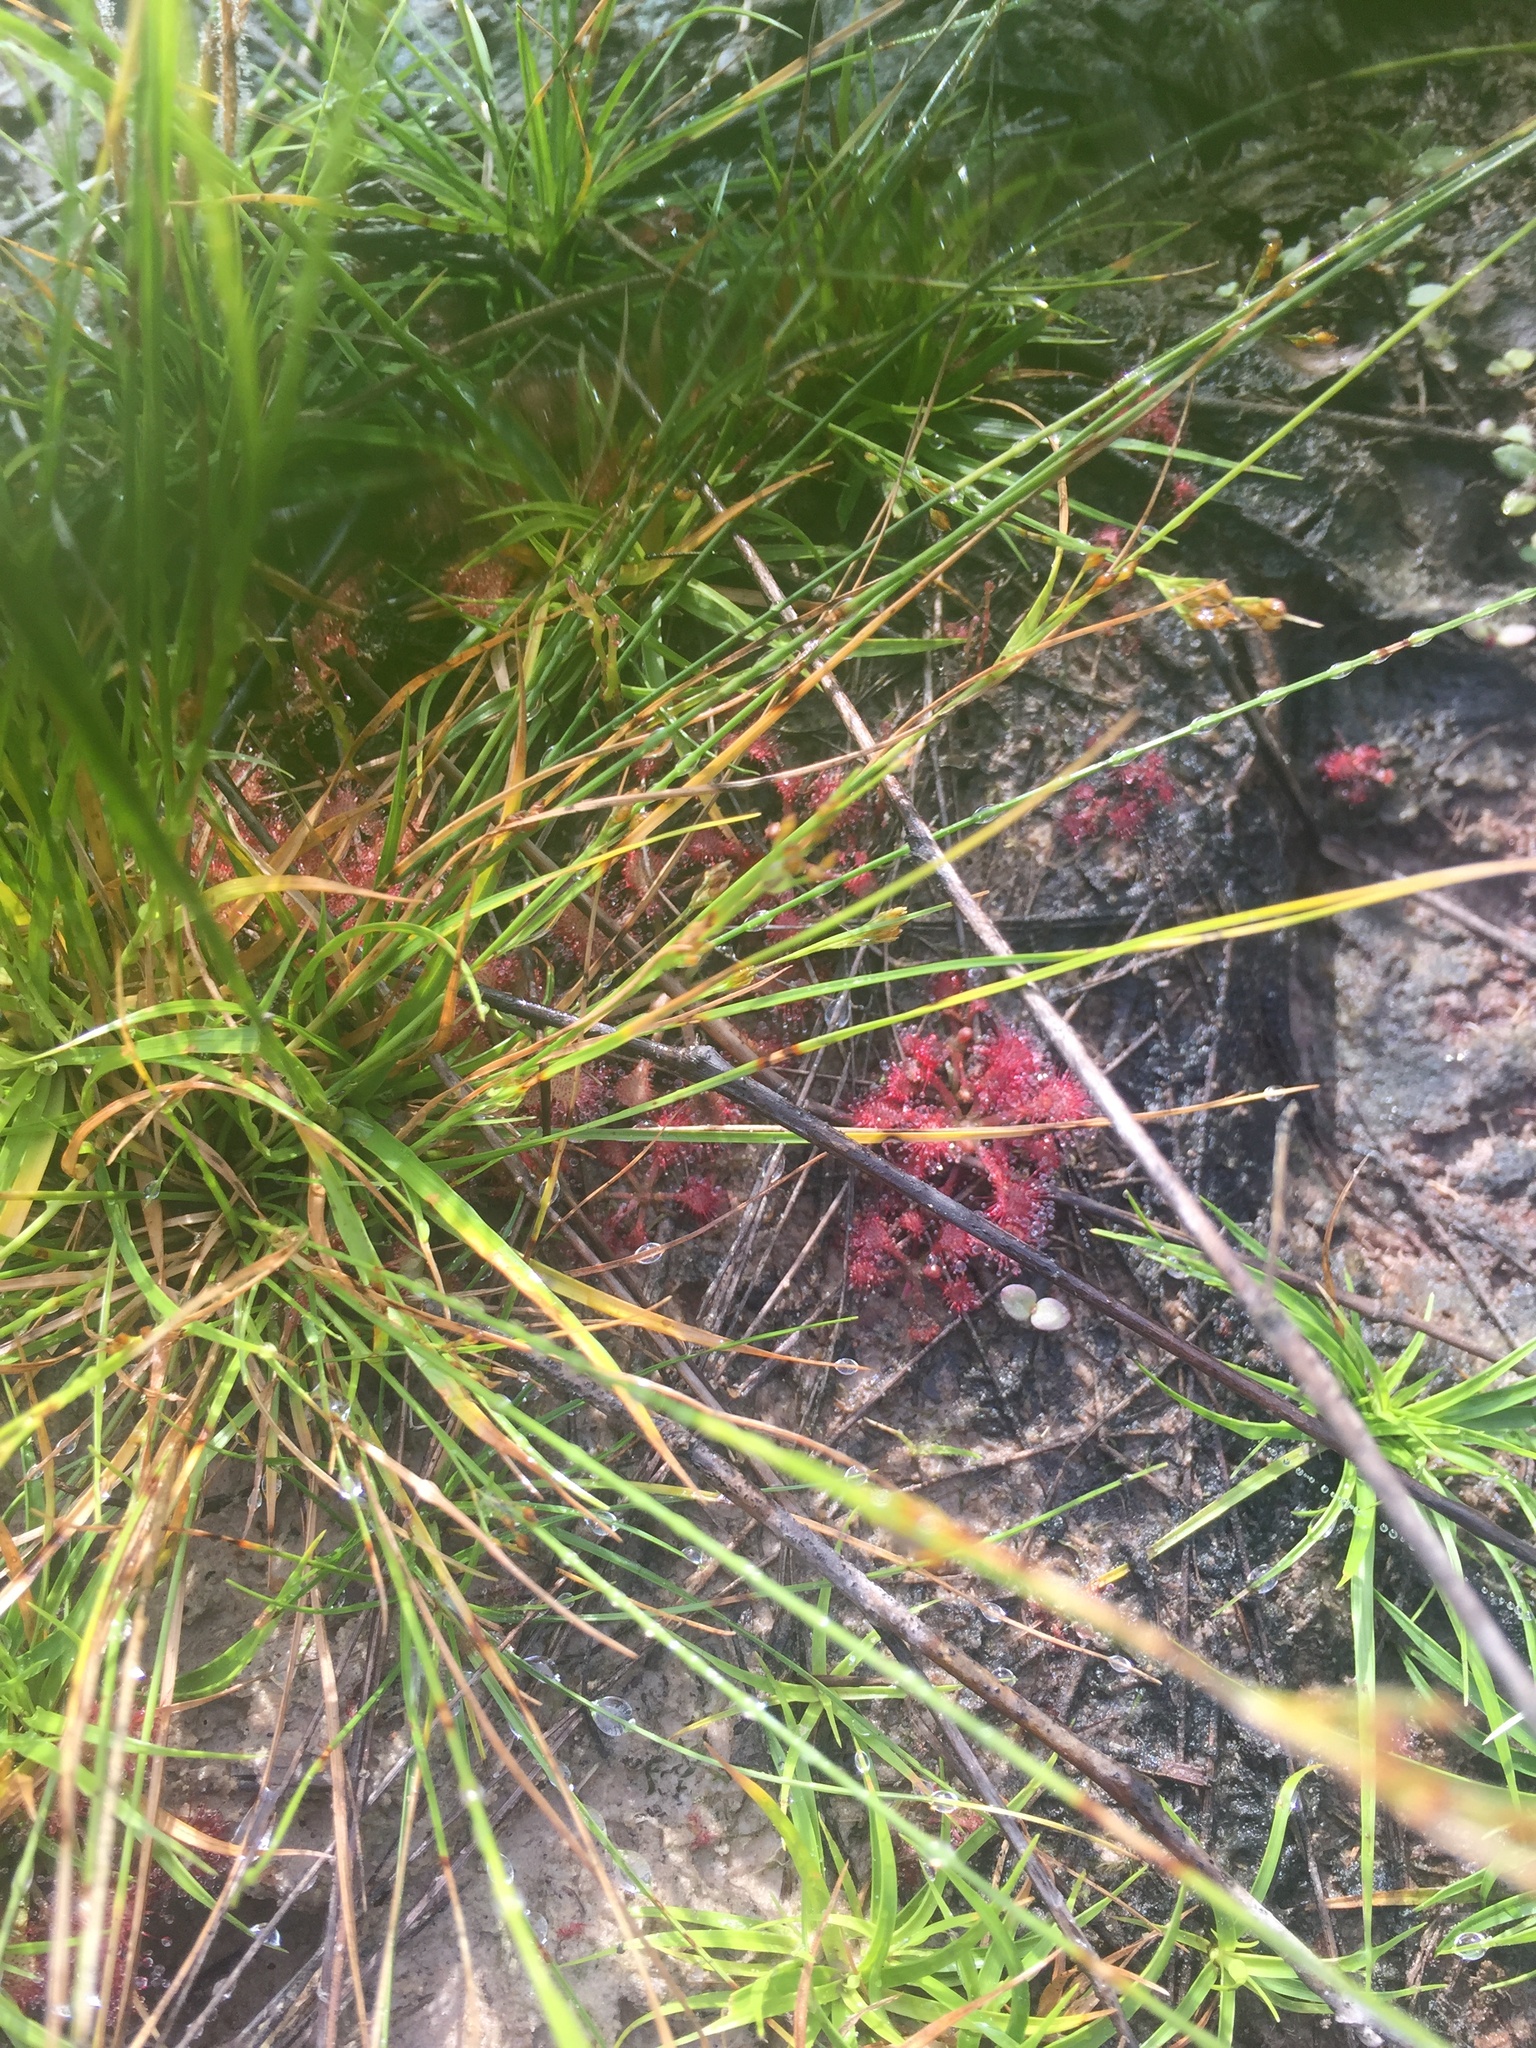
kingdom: Plantae
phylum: Tracheophyta
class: Magnoliopsida
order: Caryophyllales
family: Droseraceae
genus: Drosera
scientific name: Drosera capillaris
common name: Pink sundew
